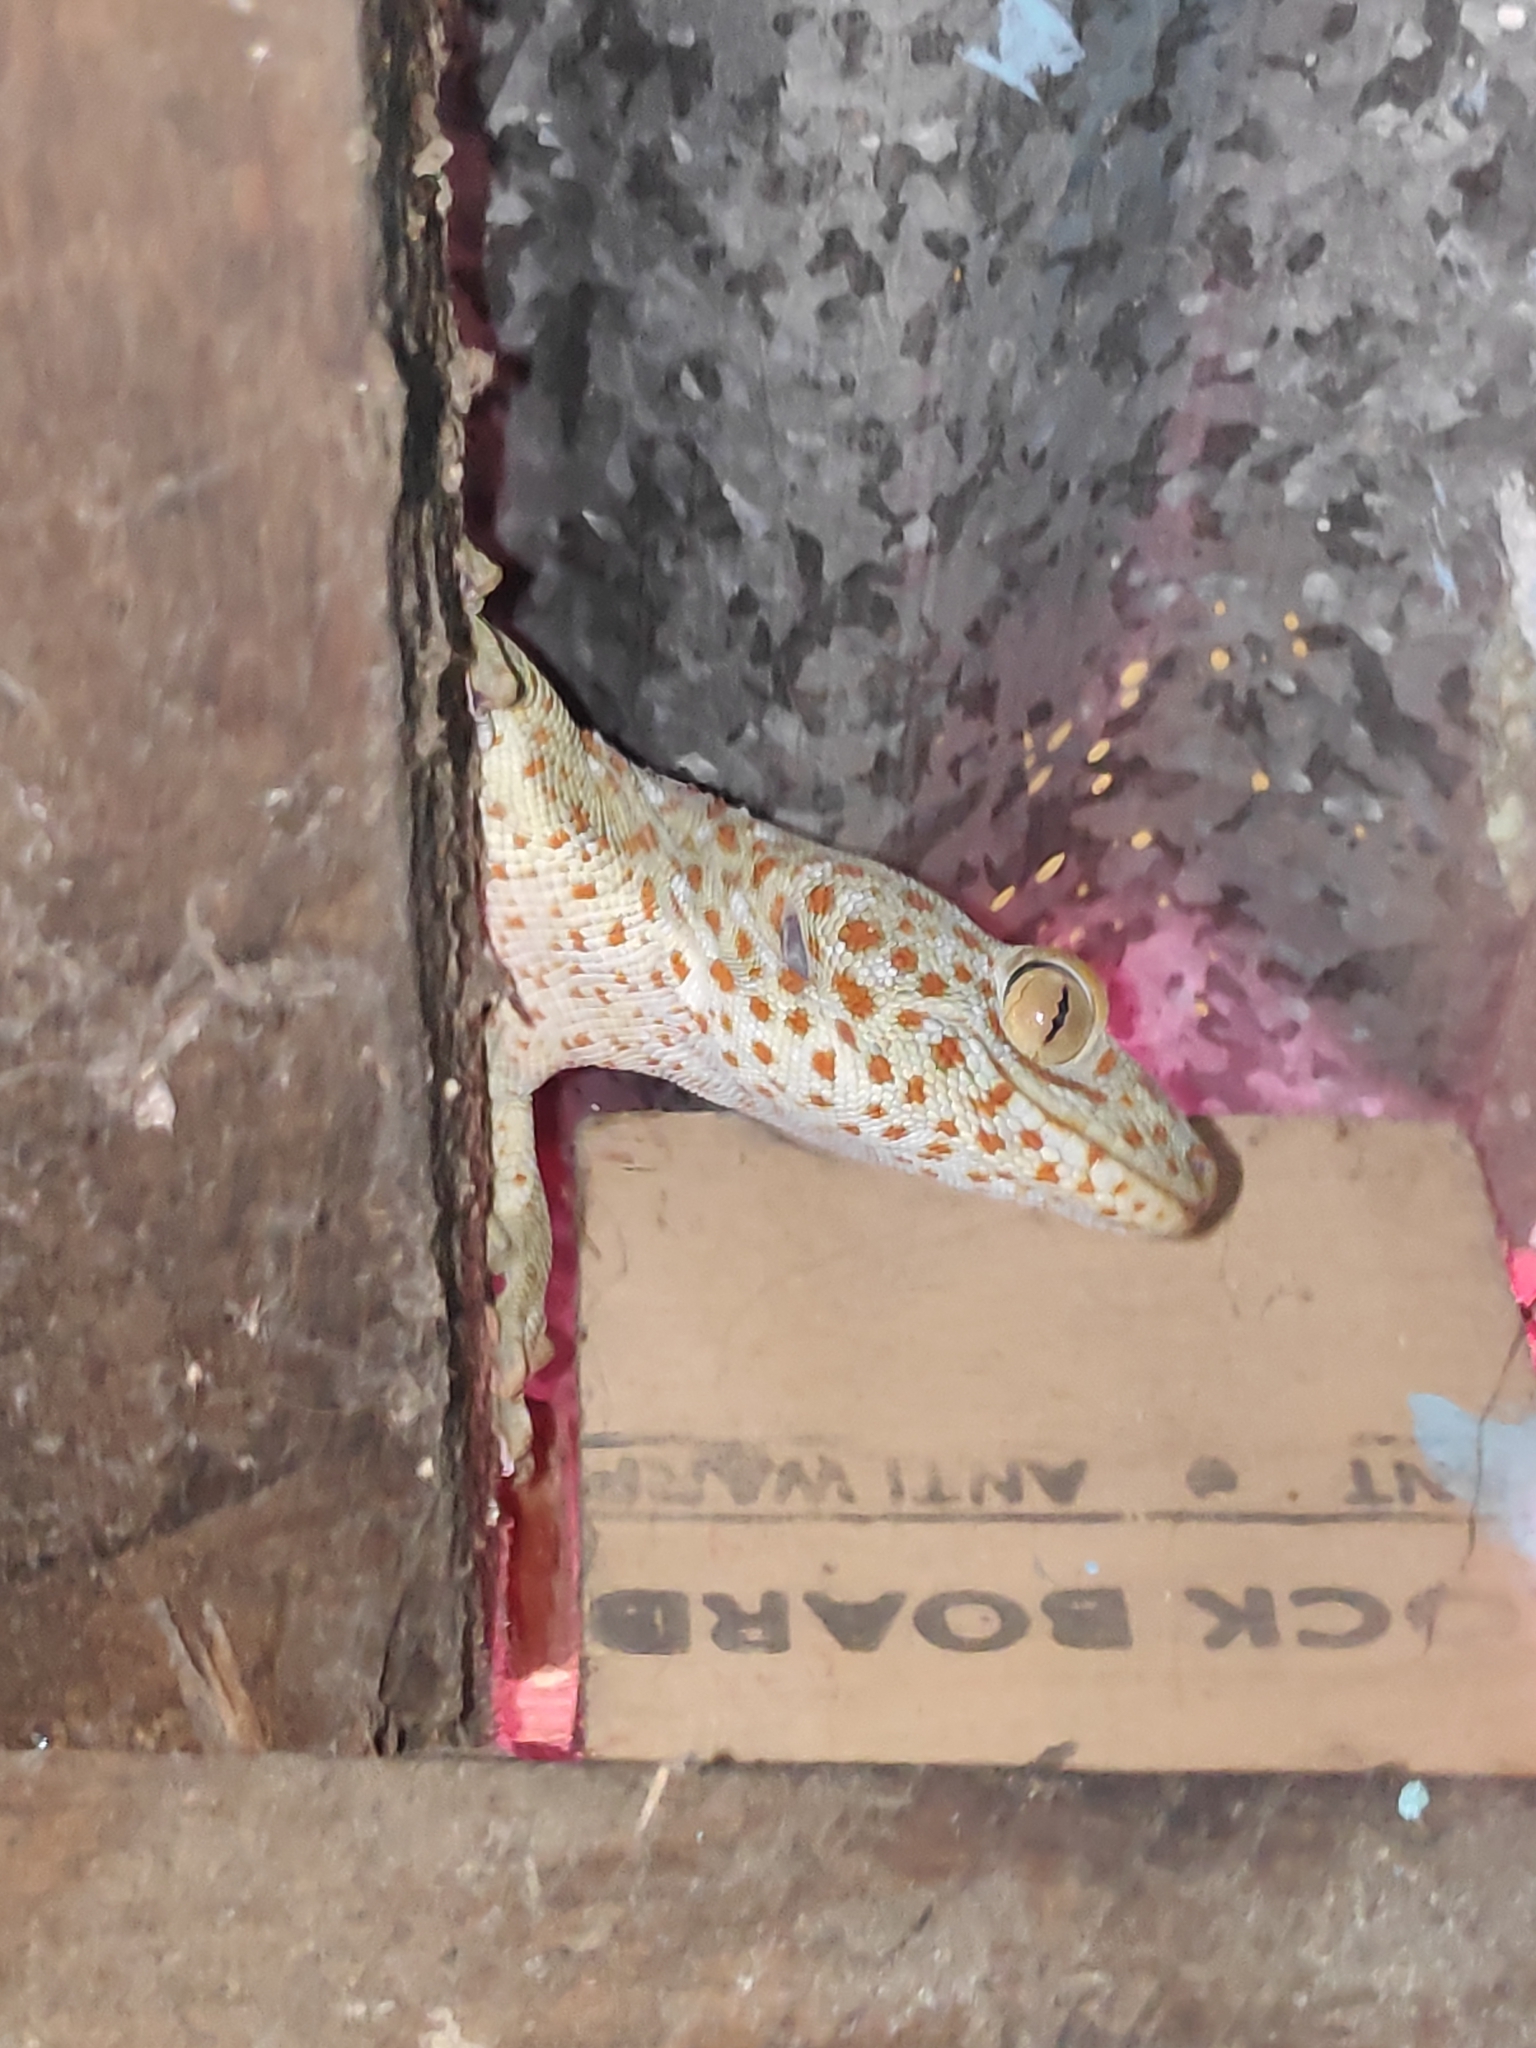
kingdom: Animalia
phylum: Chordata
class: Squamata
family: Gekkonidae
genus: Gekko
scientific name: Gekko gecko
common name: Tokay gecko
